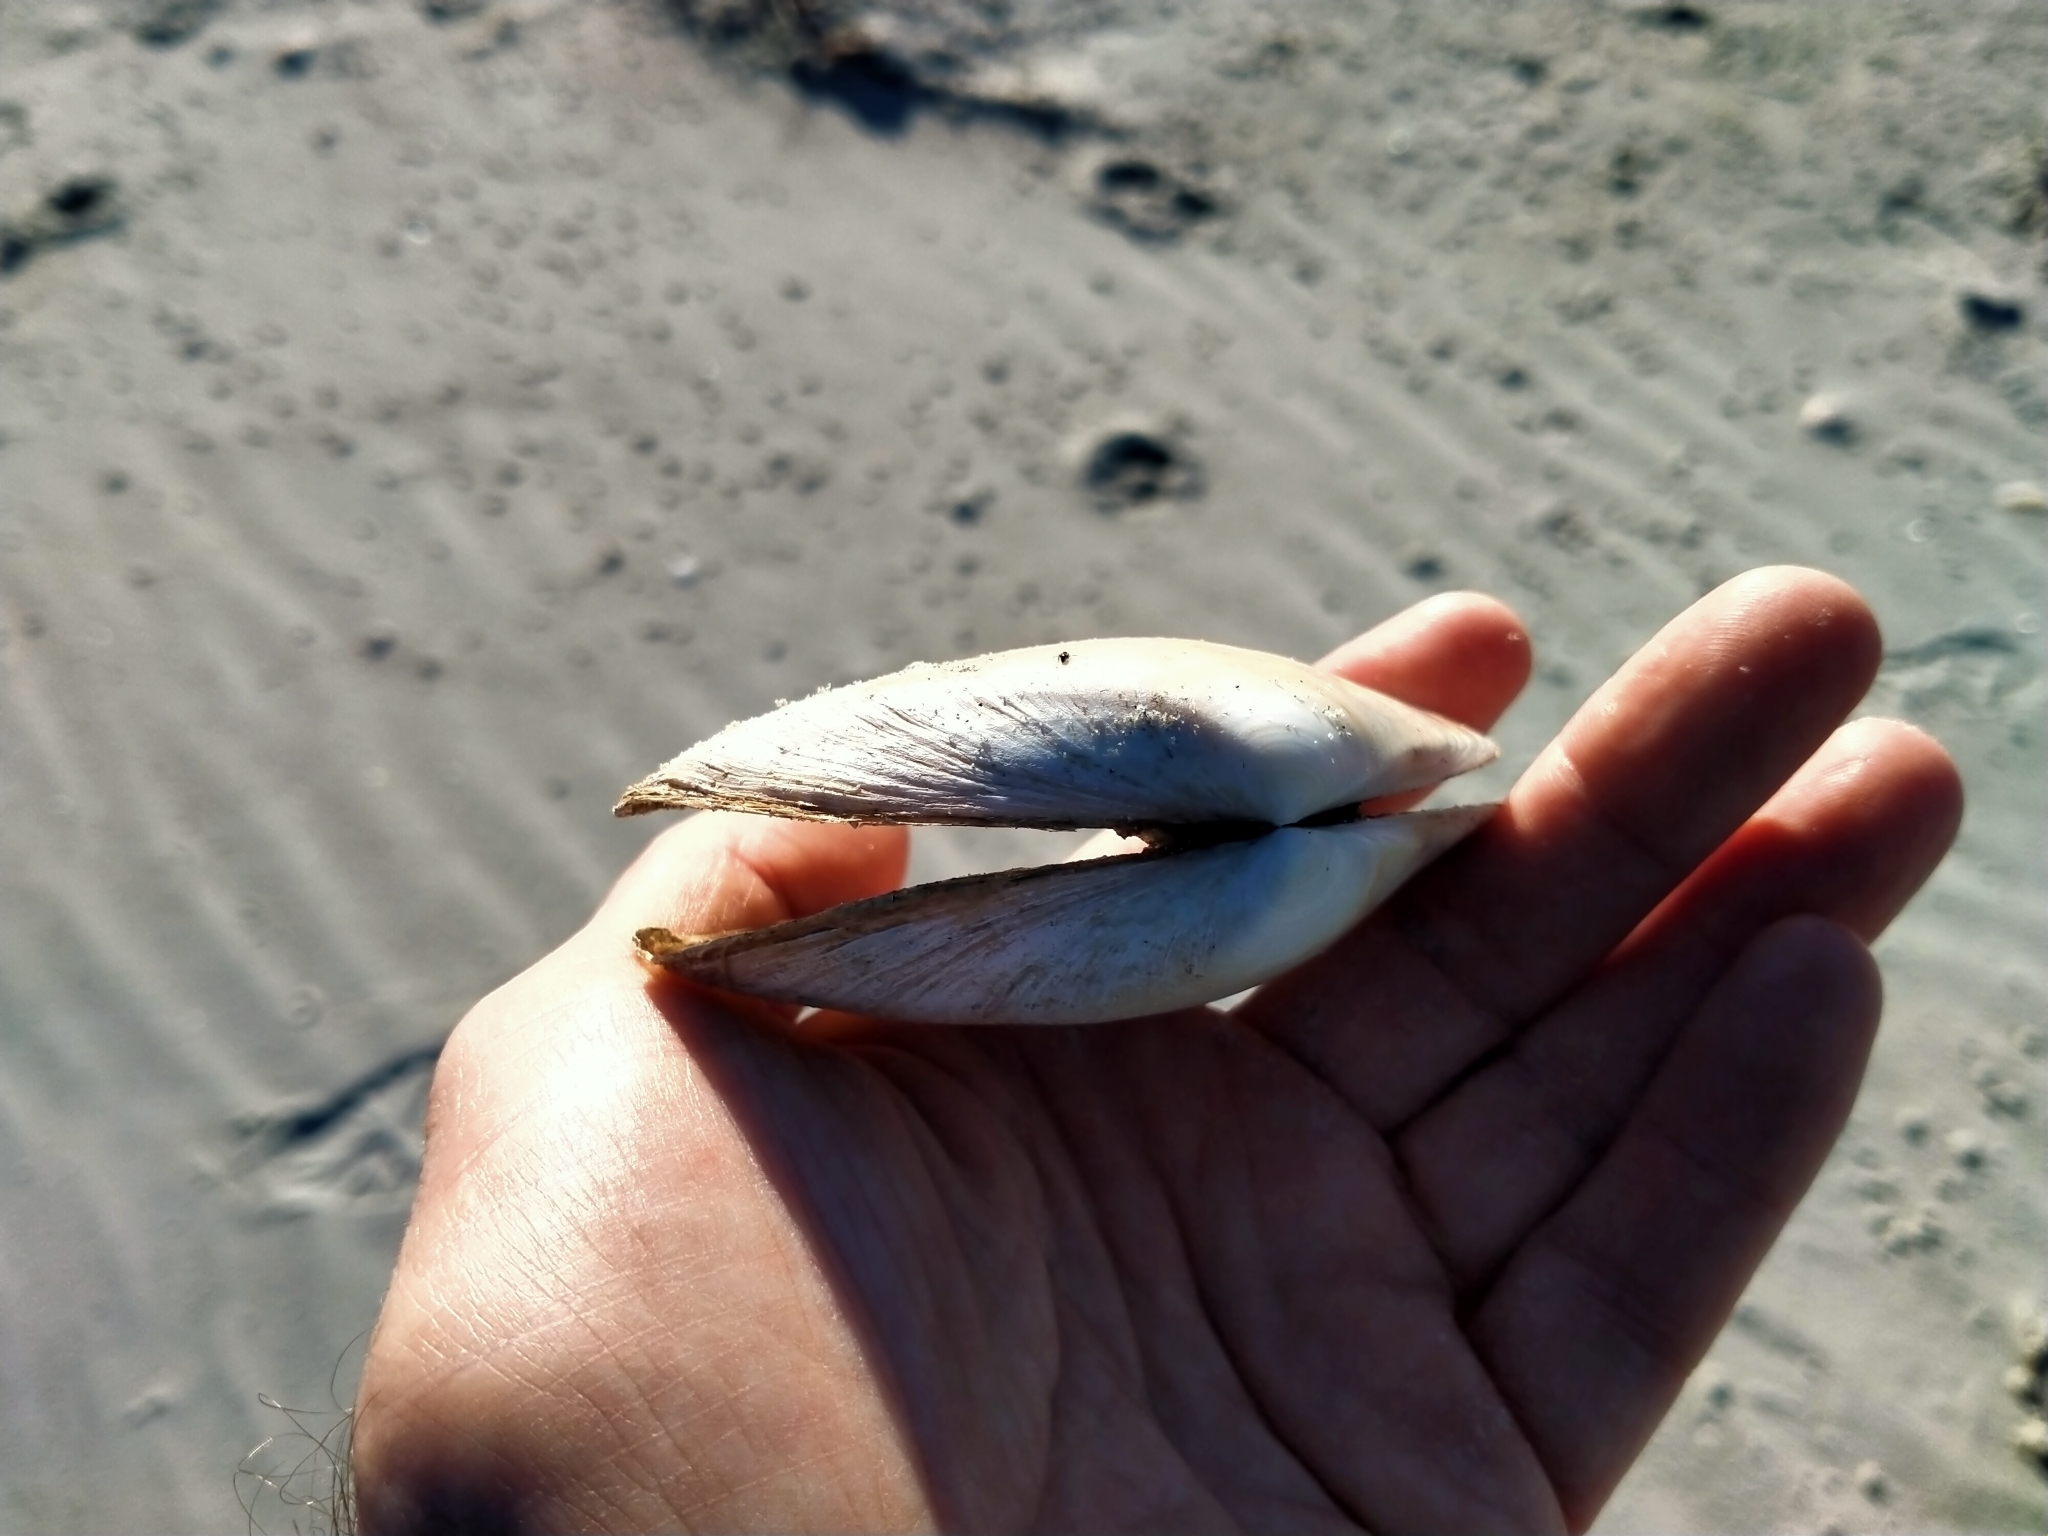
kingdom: Animalia
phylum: Mollusca
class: Bivalvia
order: Venerida
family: Mesodesmatidae
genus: Paphies
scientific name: Paphies donacina
